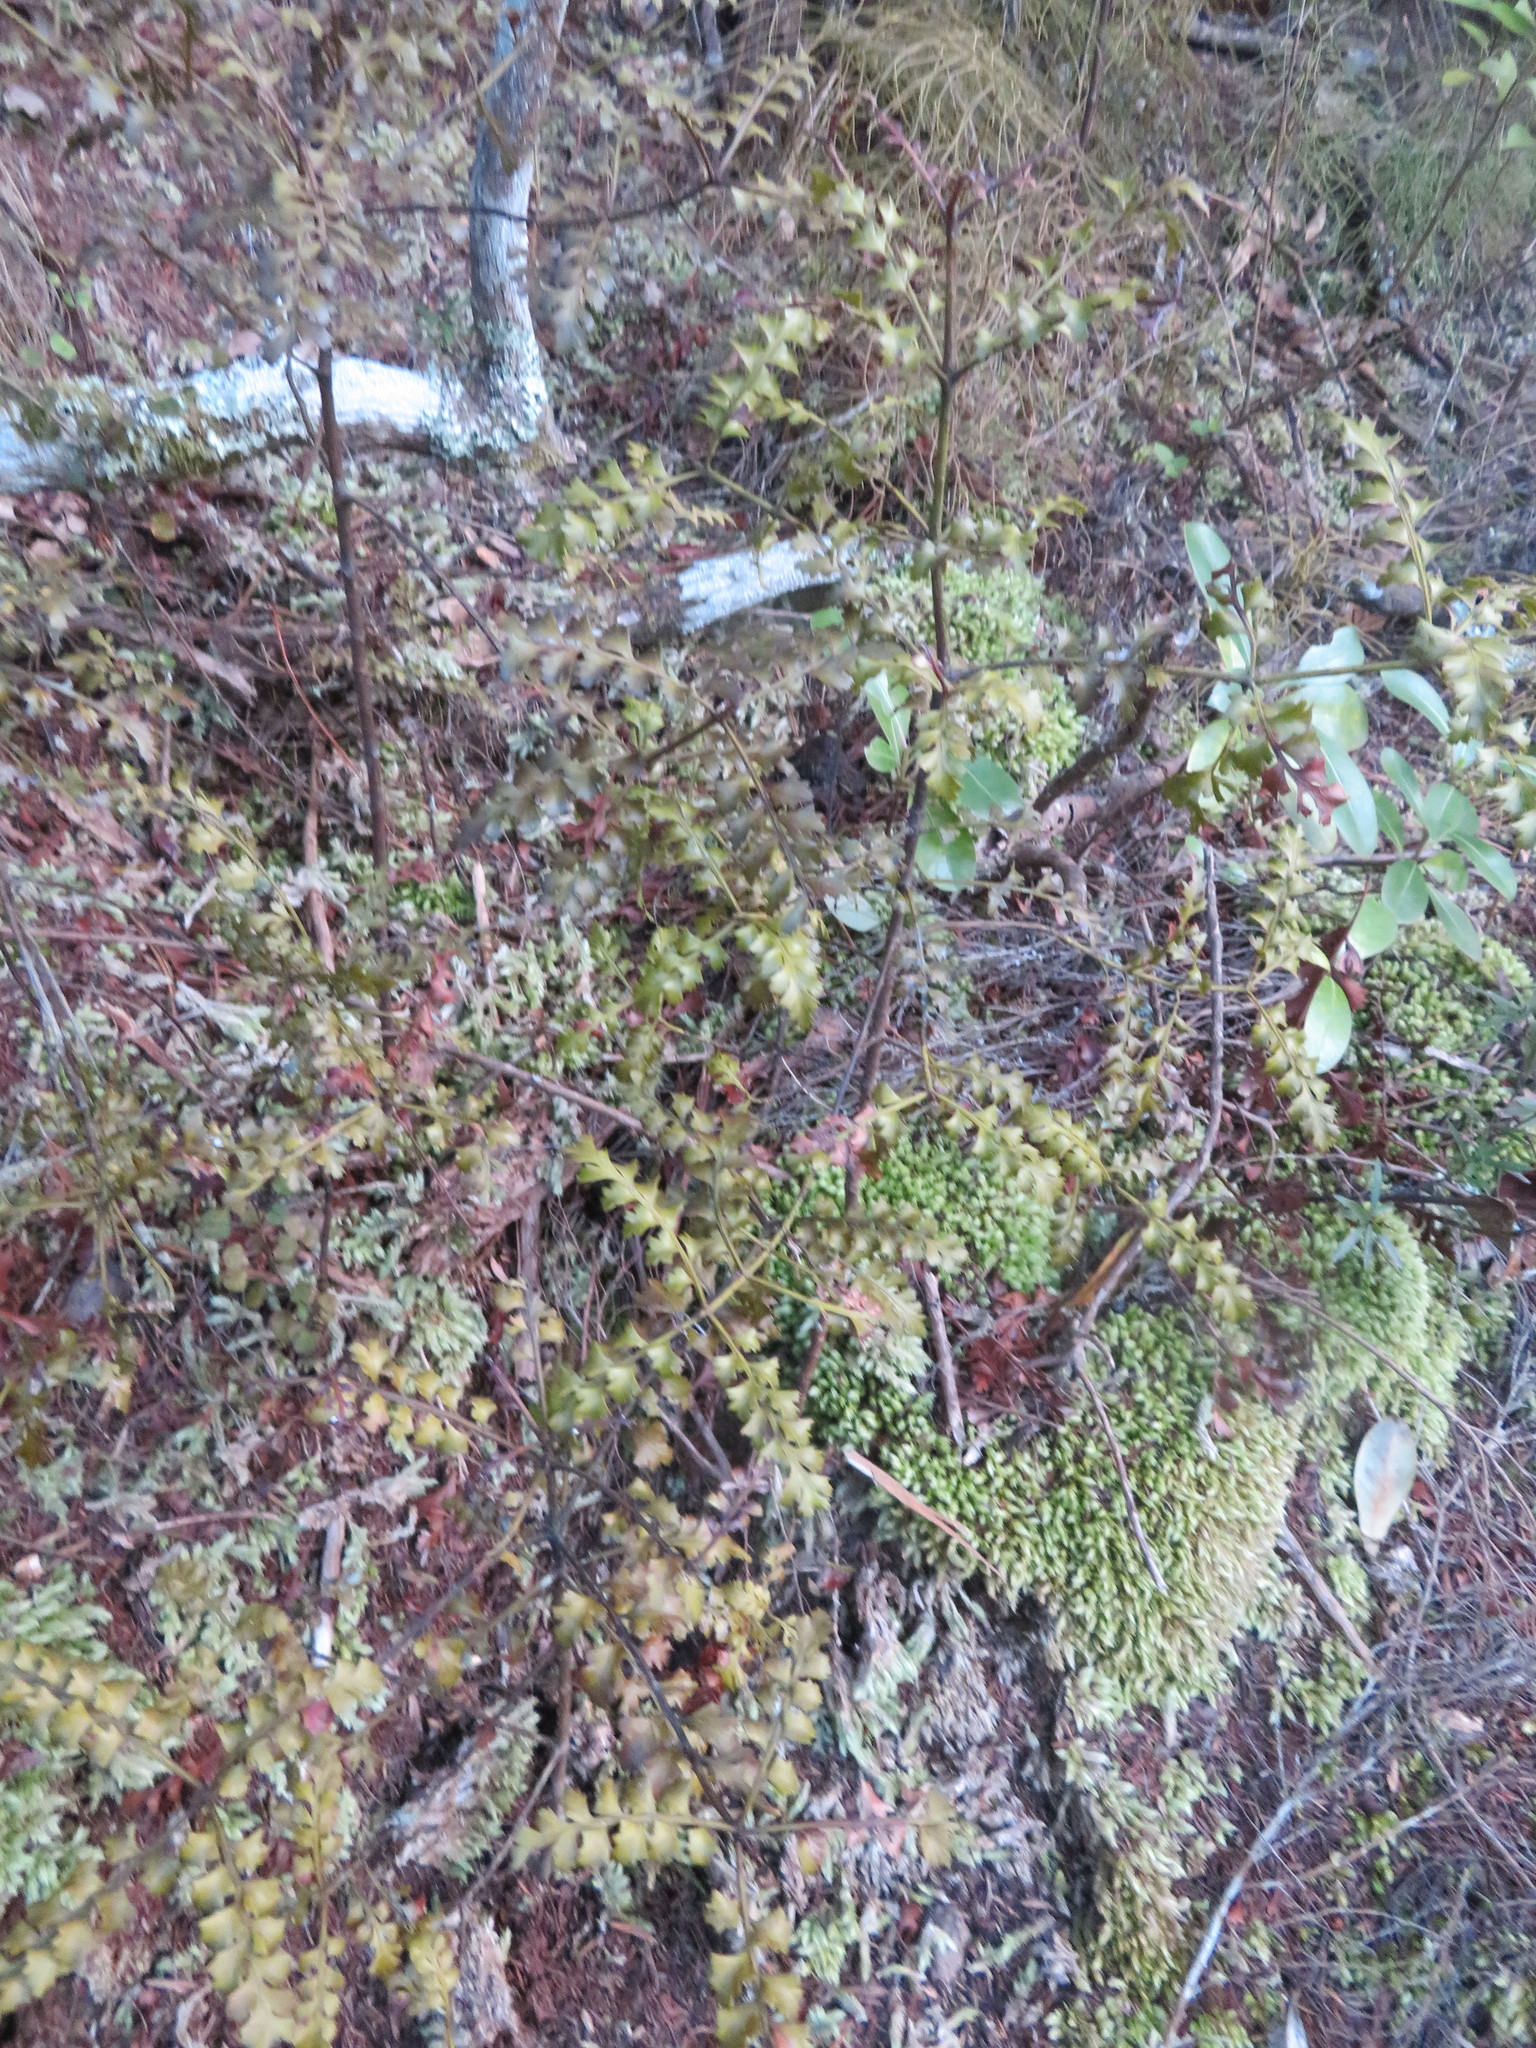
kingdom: Plantae
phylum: Tracheophyta
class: Pinopsida
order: Pinales
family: Phyllocladaceae
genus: Phyllocladus
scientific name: Phyllocladus trichomanoides
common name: Celery pine
